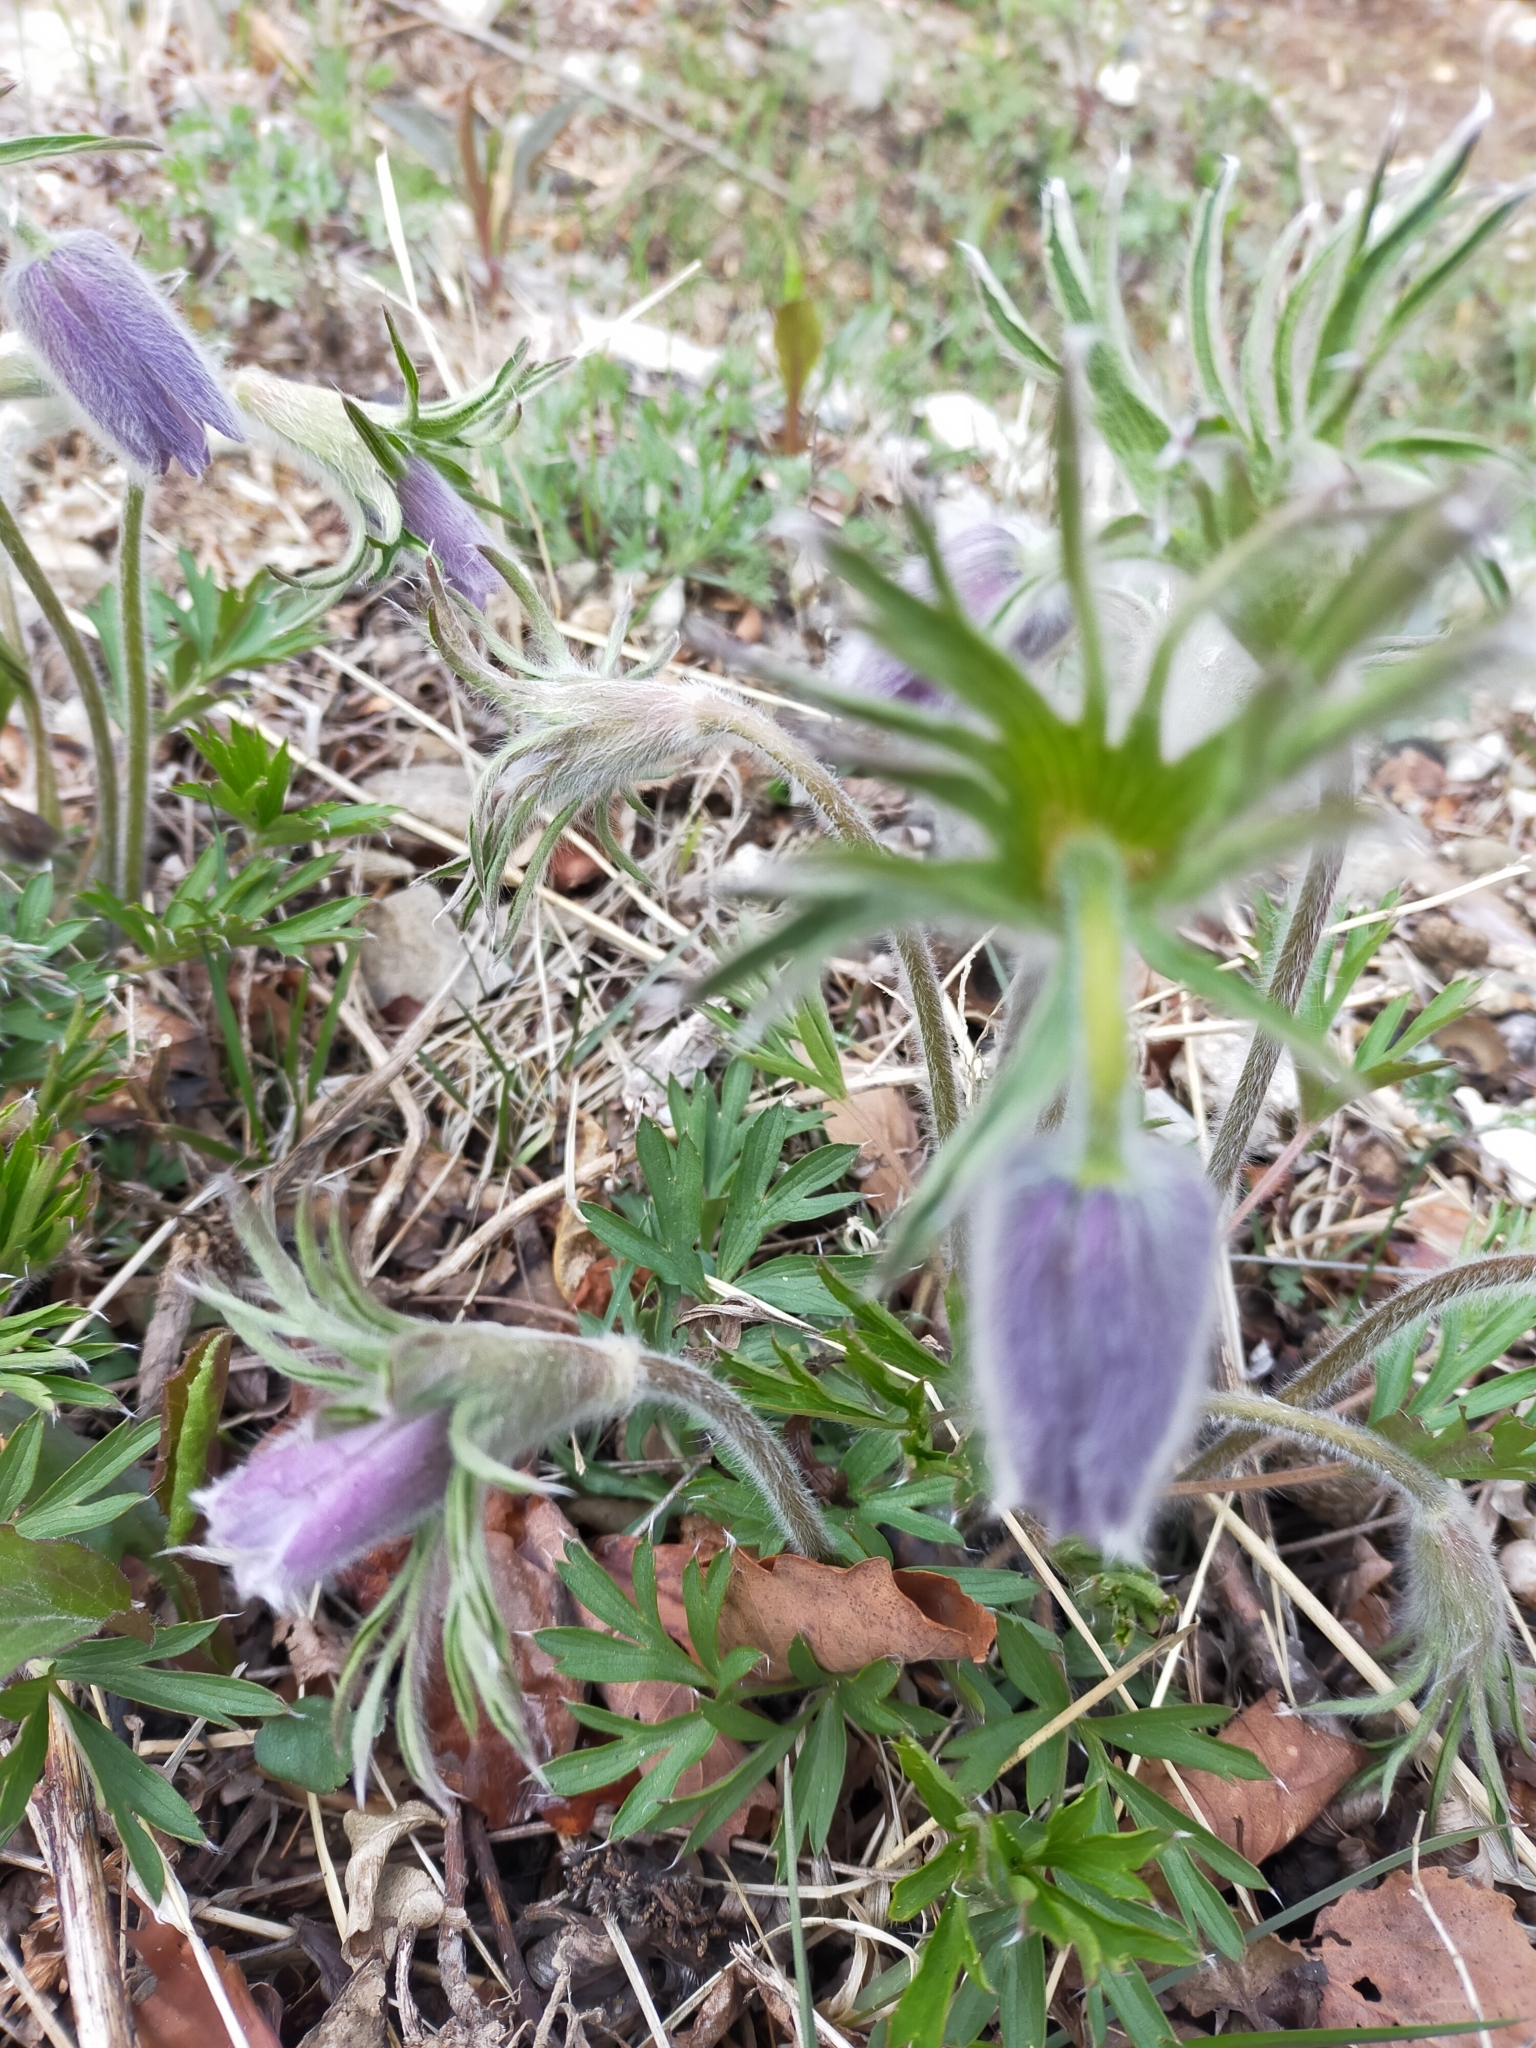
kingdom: Plantae
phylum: Tracheophyta
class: Magnoliopsida
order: Ranunculales
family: Ranunculaceae
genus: Pulsatilla
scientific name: Pulsatilla dahurica
